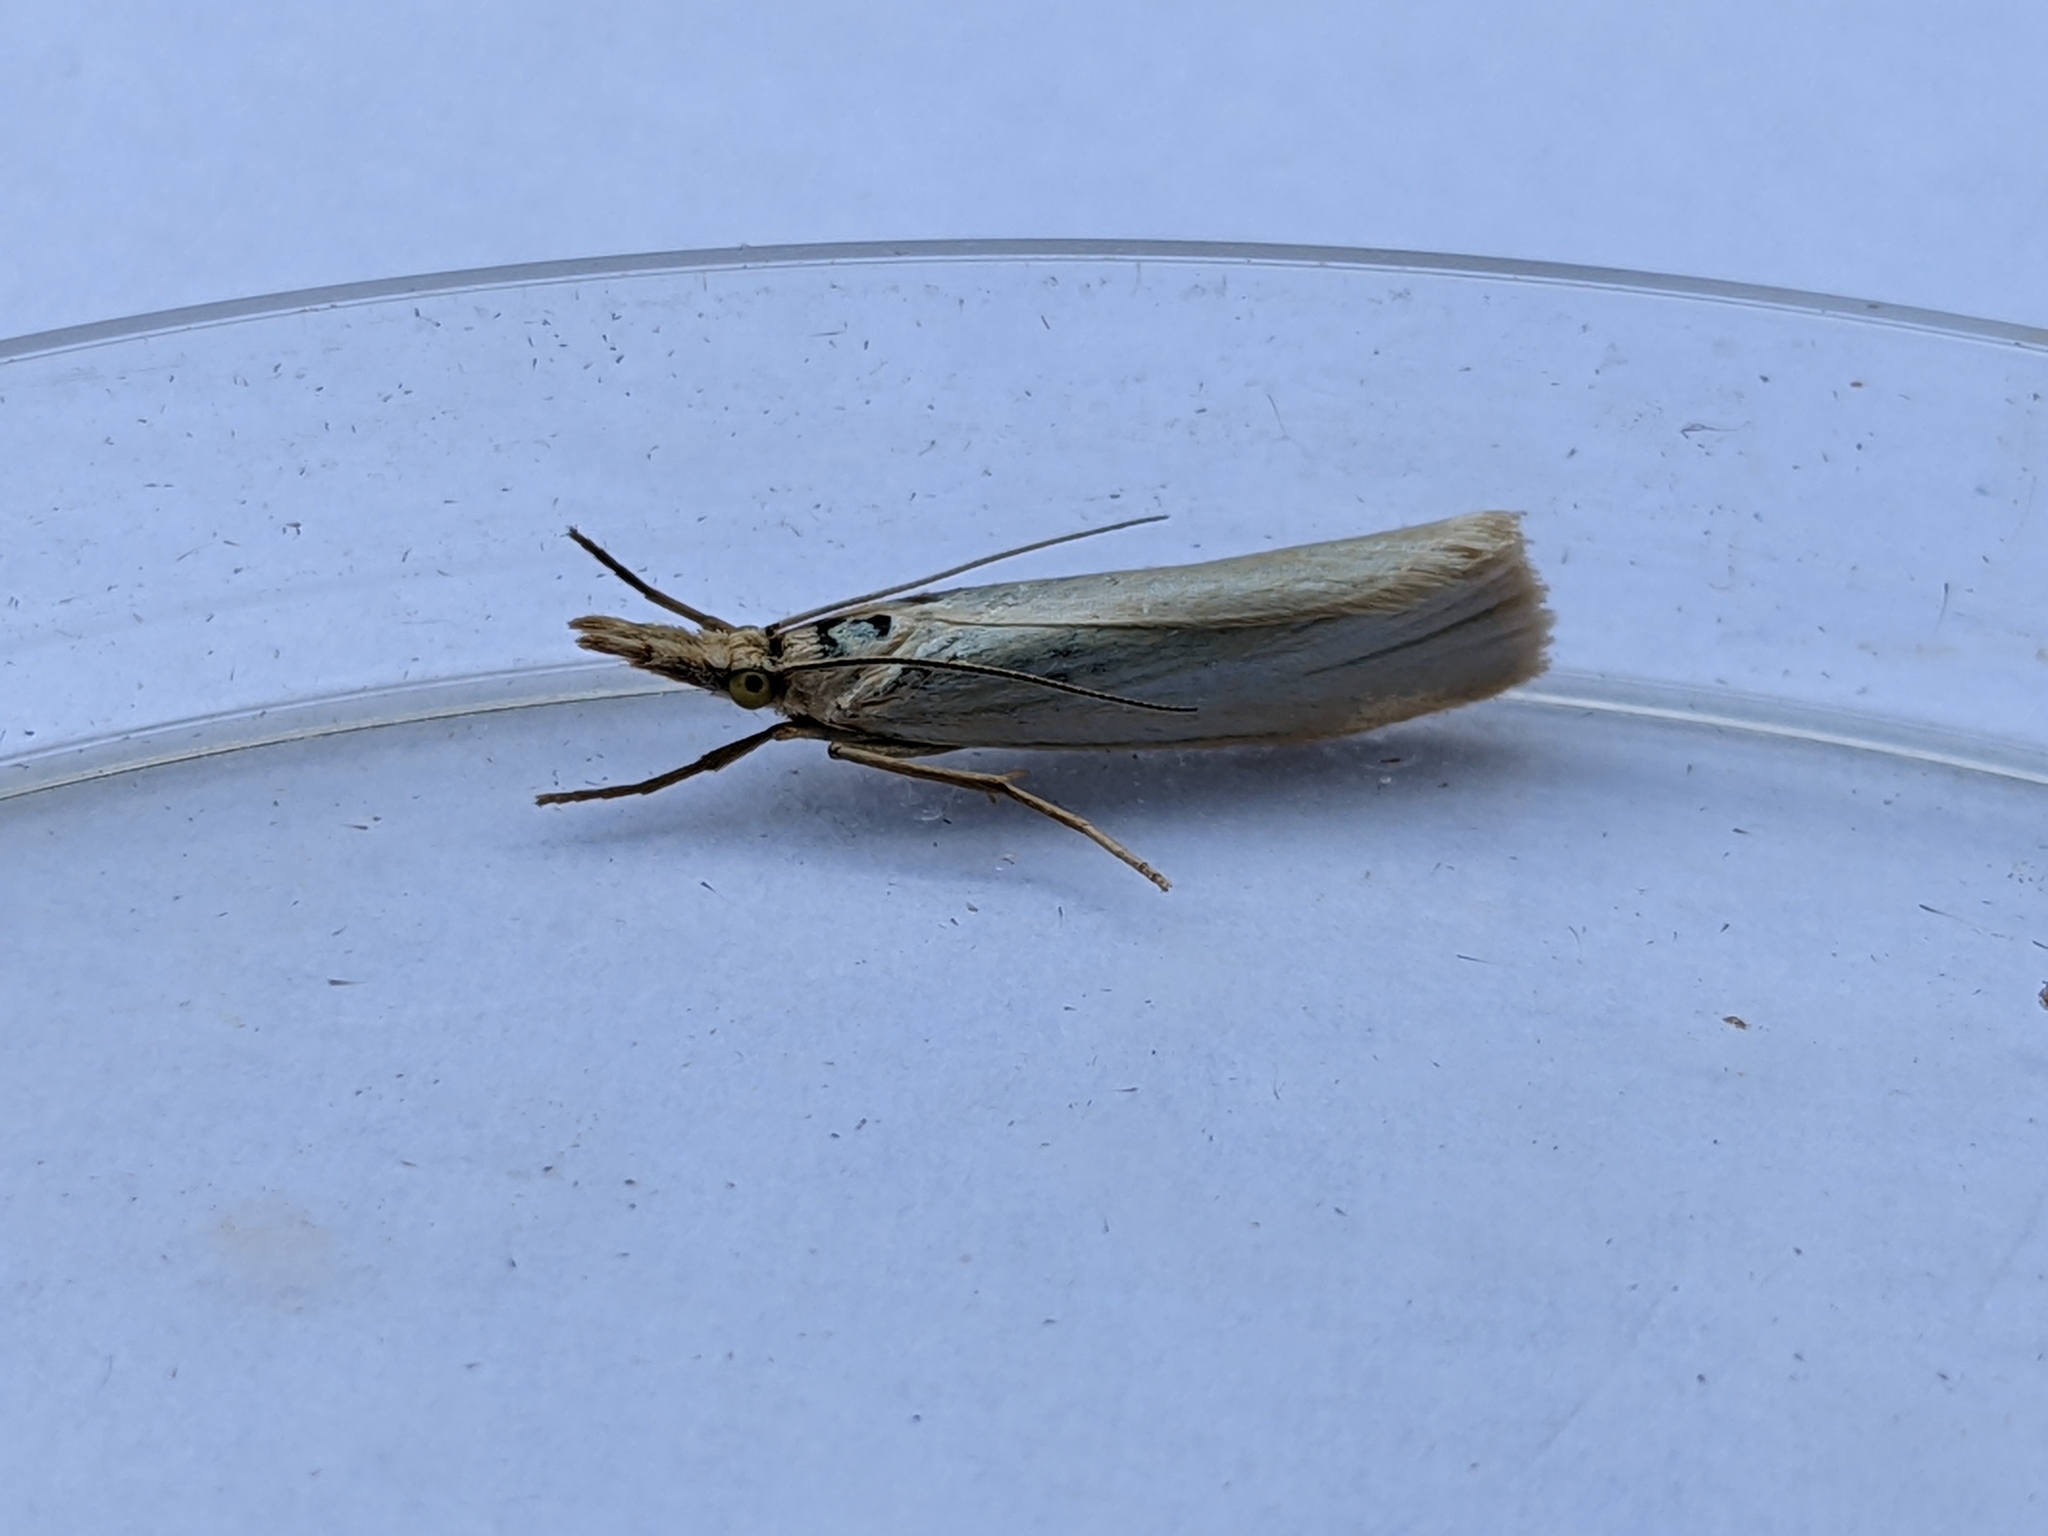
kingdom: Animalia
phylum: Arthropoda
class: Insecta
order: Lepidoptera
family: Crambidae
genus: Crambus
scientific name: Crambus perlellus
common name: Yellow satin veneer
